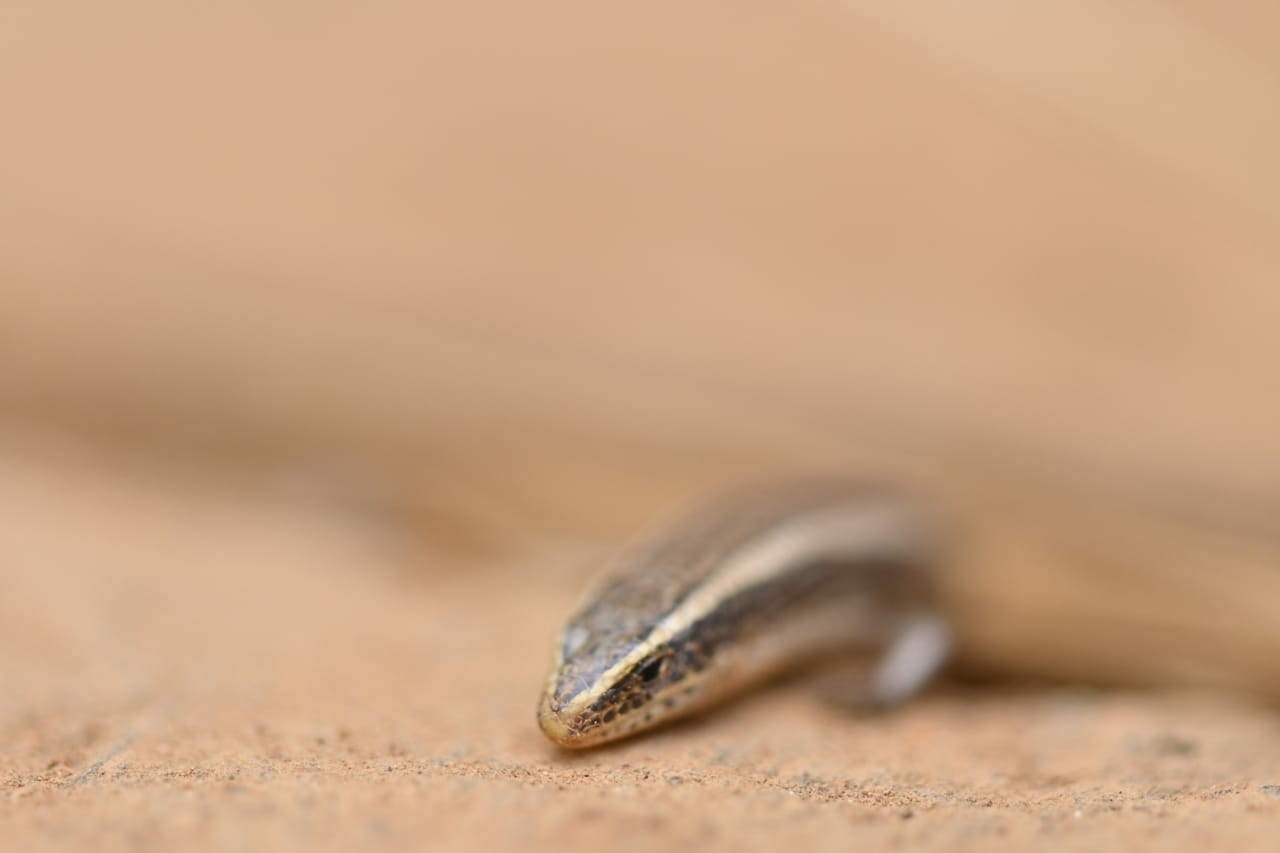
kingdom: Animalia
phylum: Chordata
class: Squamata
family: Scincidae
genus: Riopa
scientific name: Riopa punctata
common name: Common dotted garden skink
